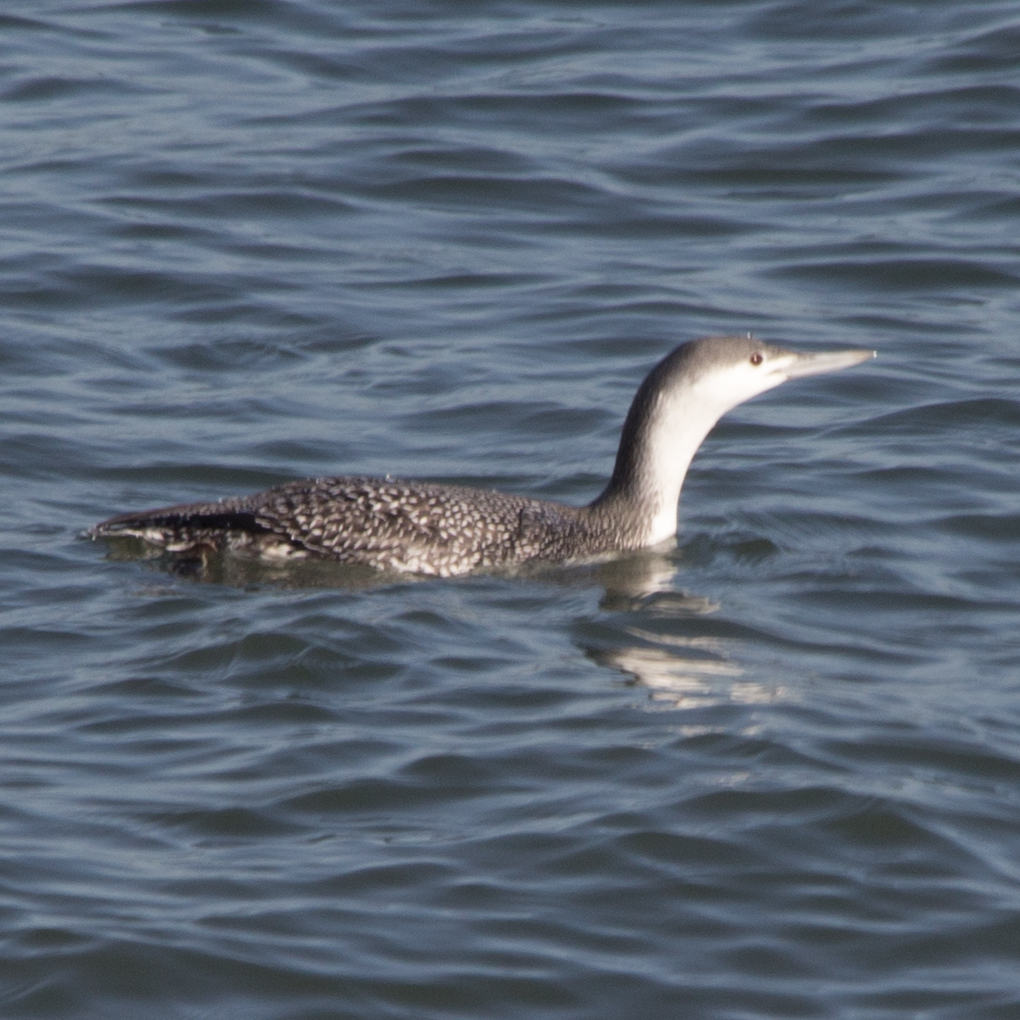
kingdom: Animalia
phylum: Chordata
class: Aves
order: Gaviiformes
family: Gaviidae
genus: Gavia
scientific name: Gavia stellata
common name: Red-throated loon
